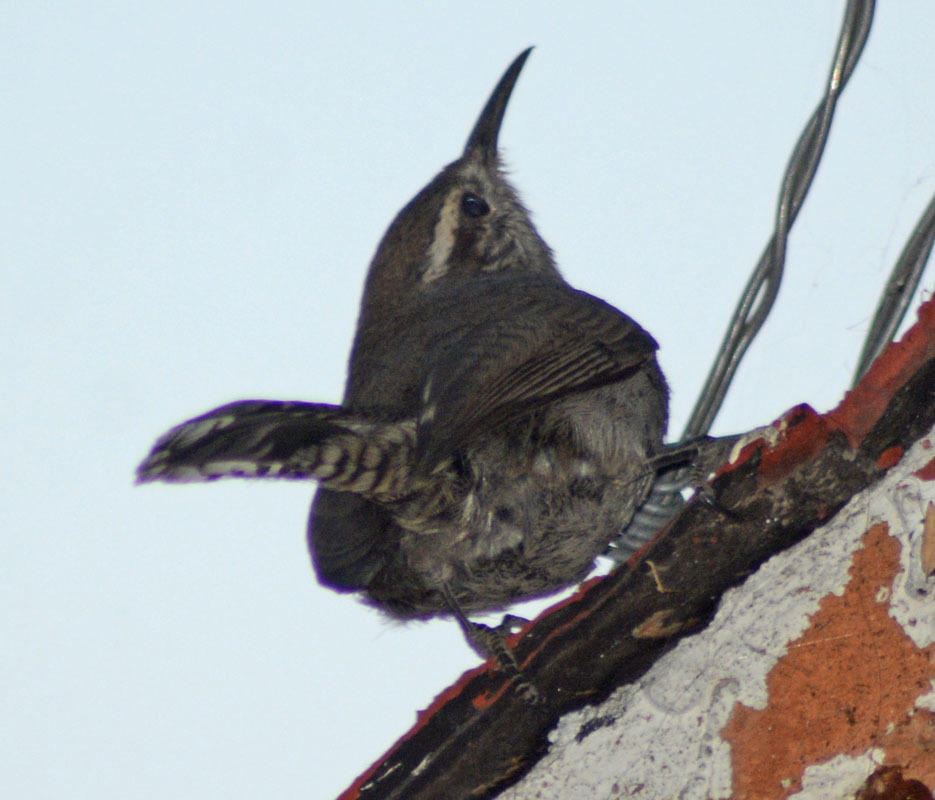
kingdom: Animalia
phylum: Chordata
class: Aves
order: Passeriformes
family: Troglodytidae
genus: Thryomanes
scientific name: Thryomanes bewickii
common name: Bewick's wren
